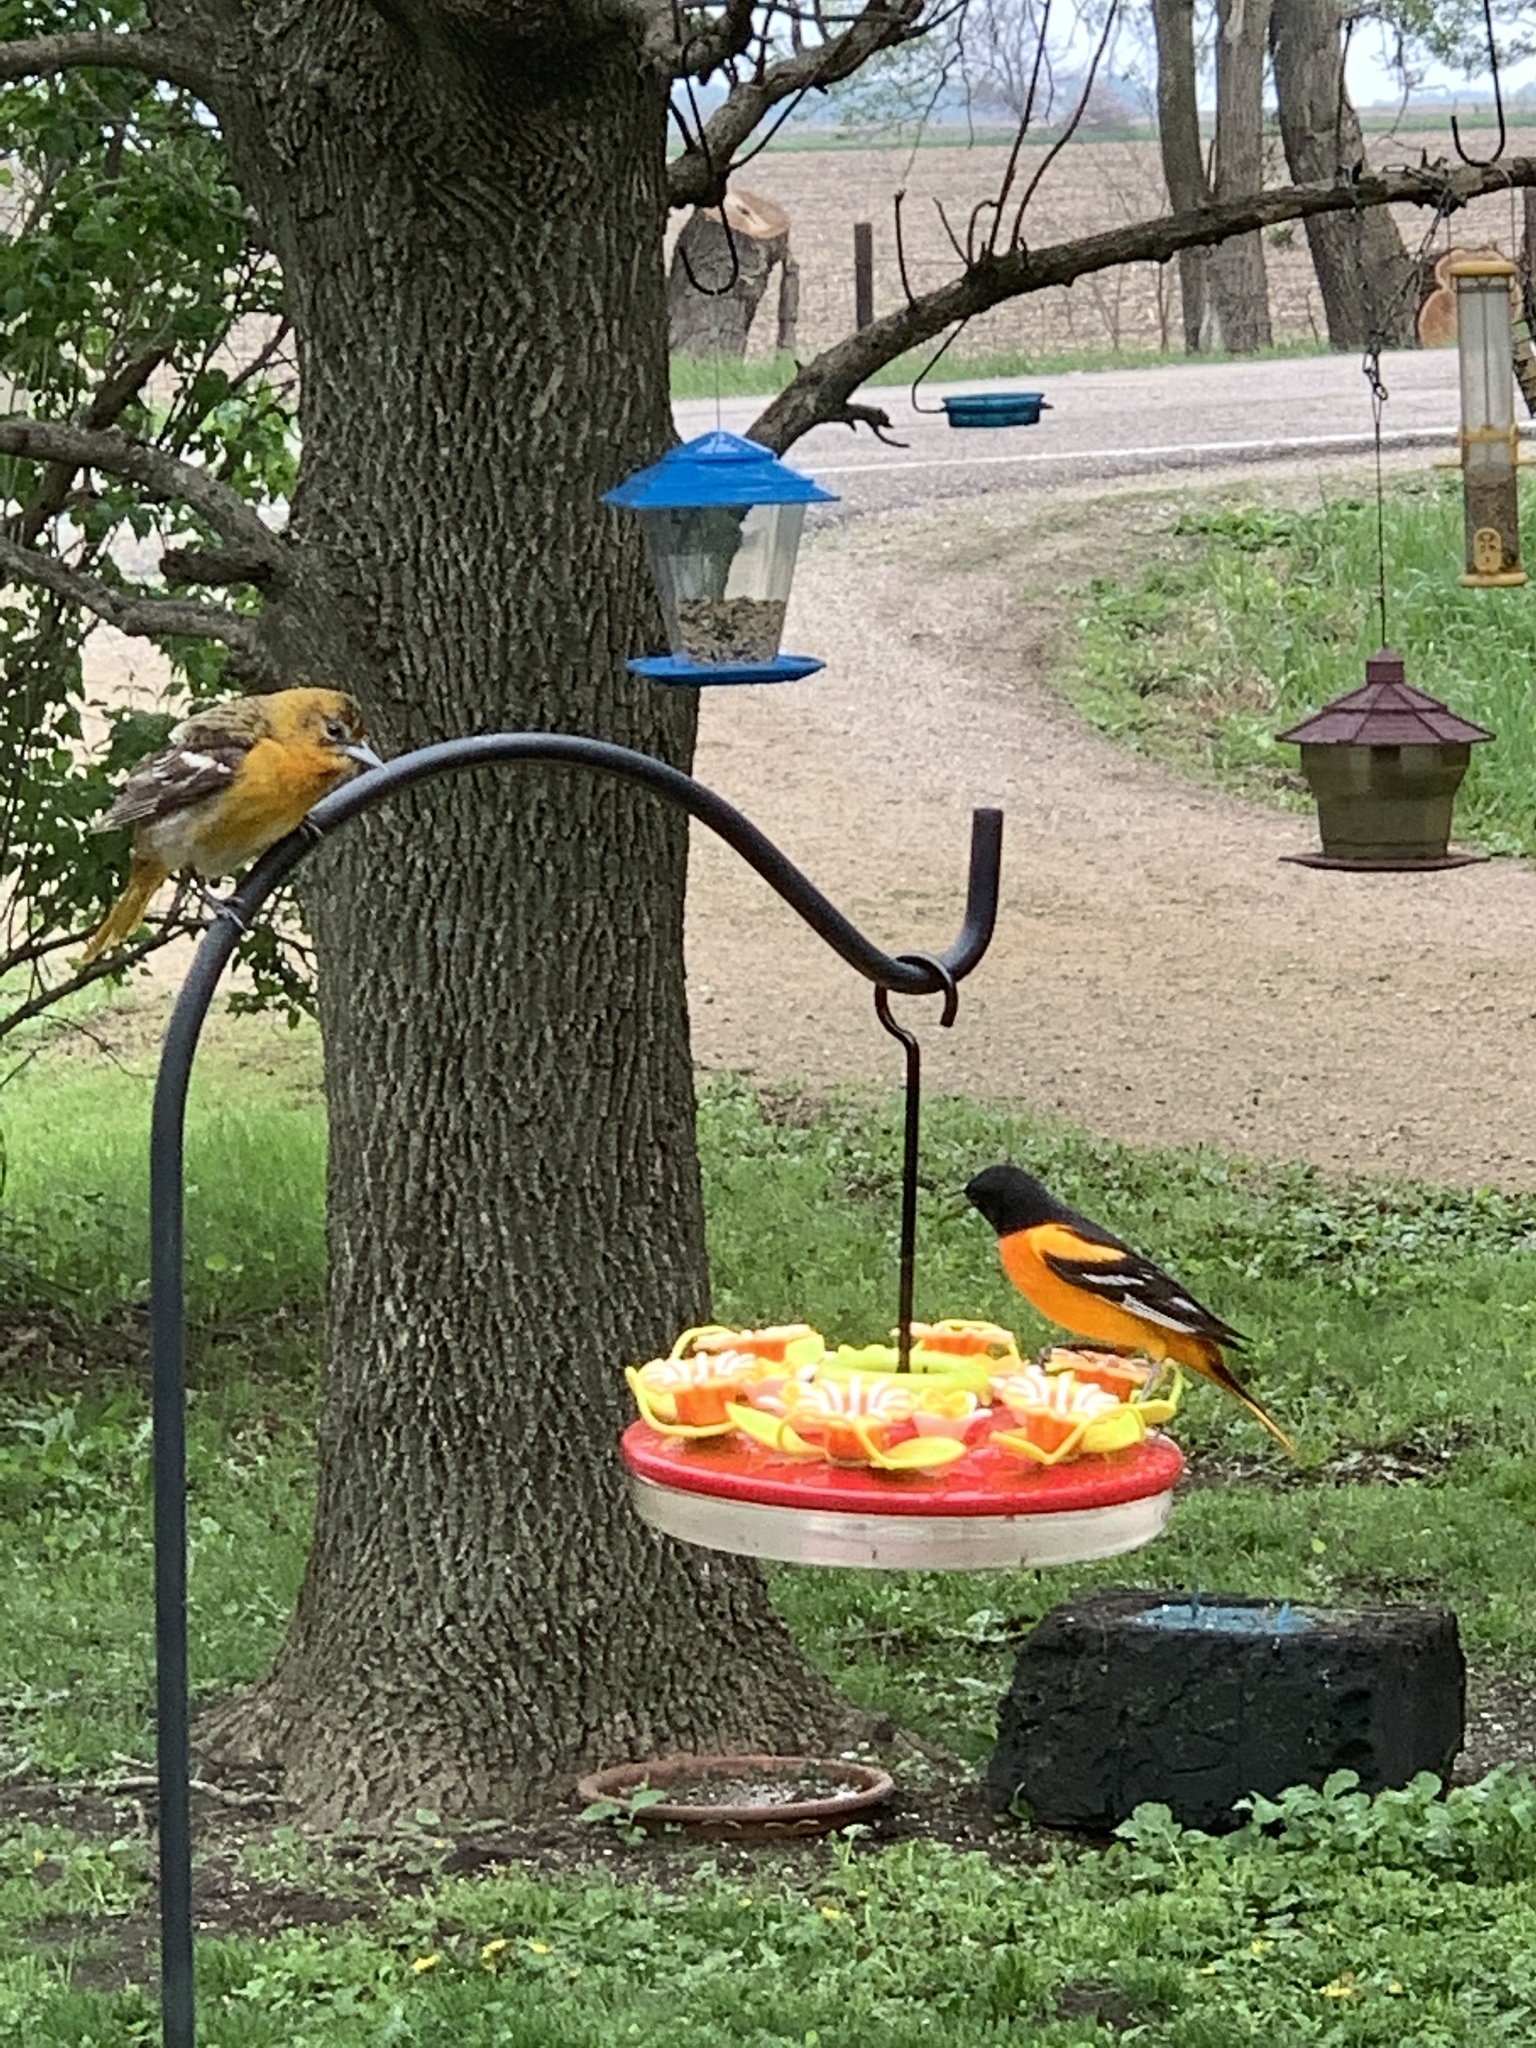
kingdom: Animalia
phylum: Chordata
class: Aves
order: Passeriformes
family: Icteridae
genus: Icterus
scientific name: Icterus galbula
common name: Baltimore oriole
